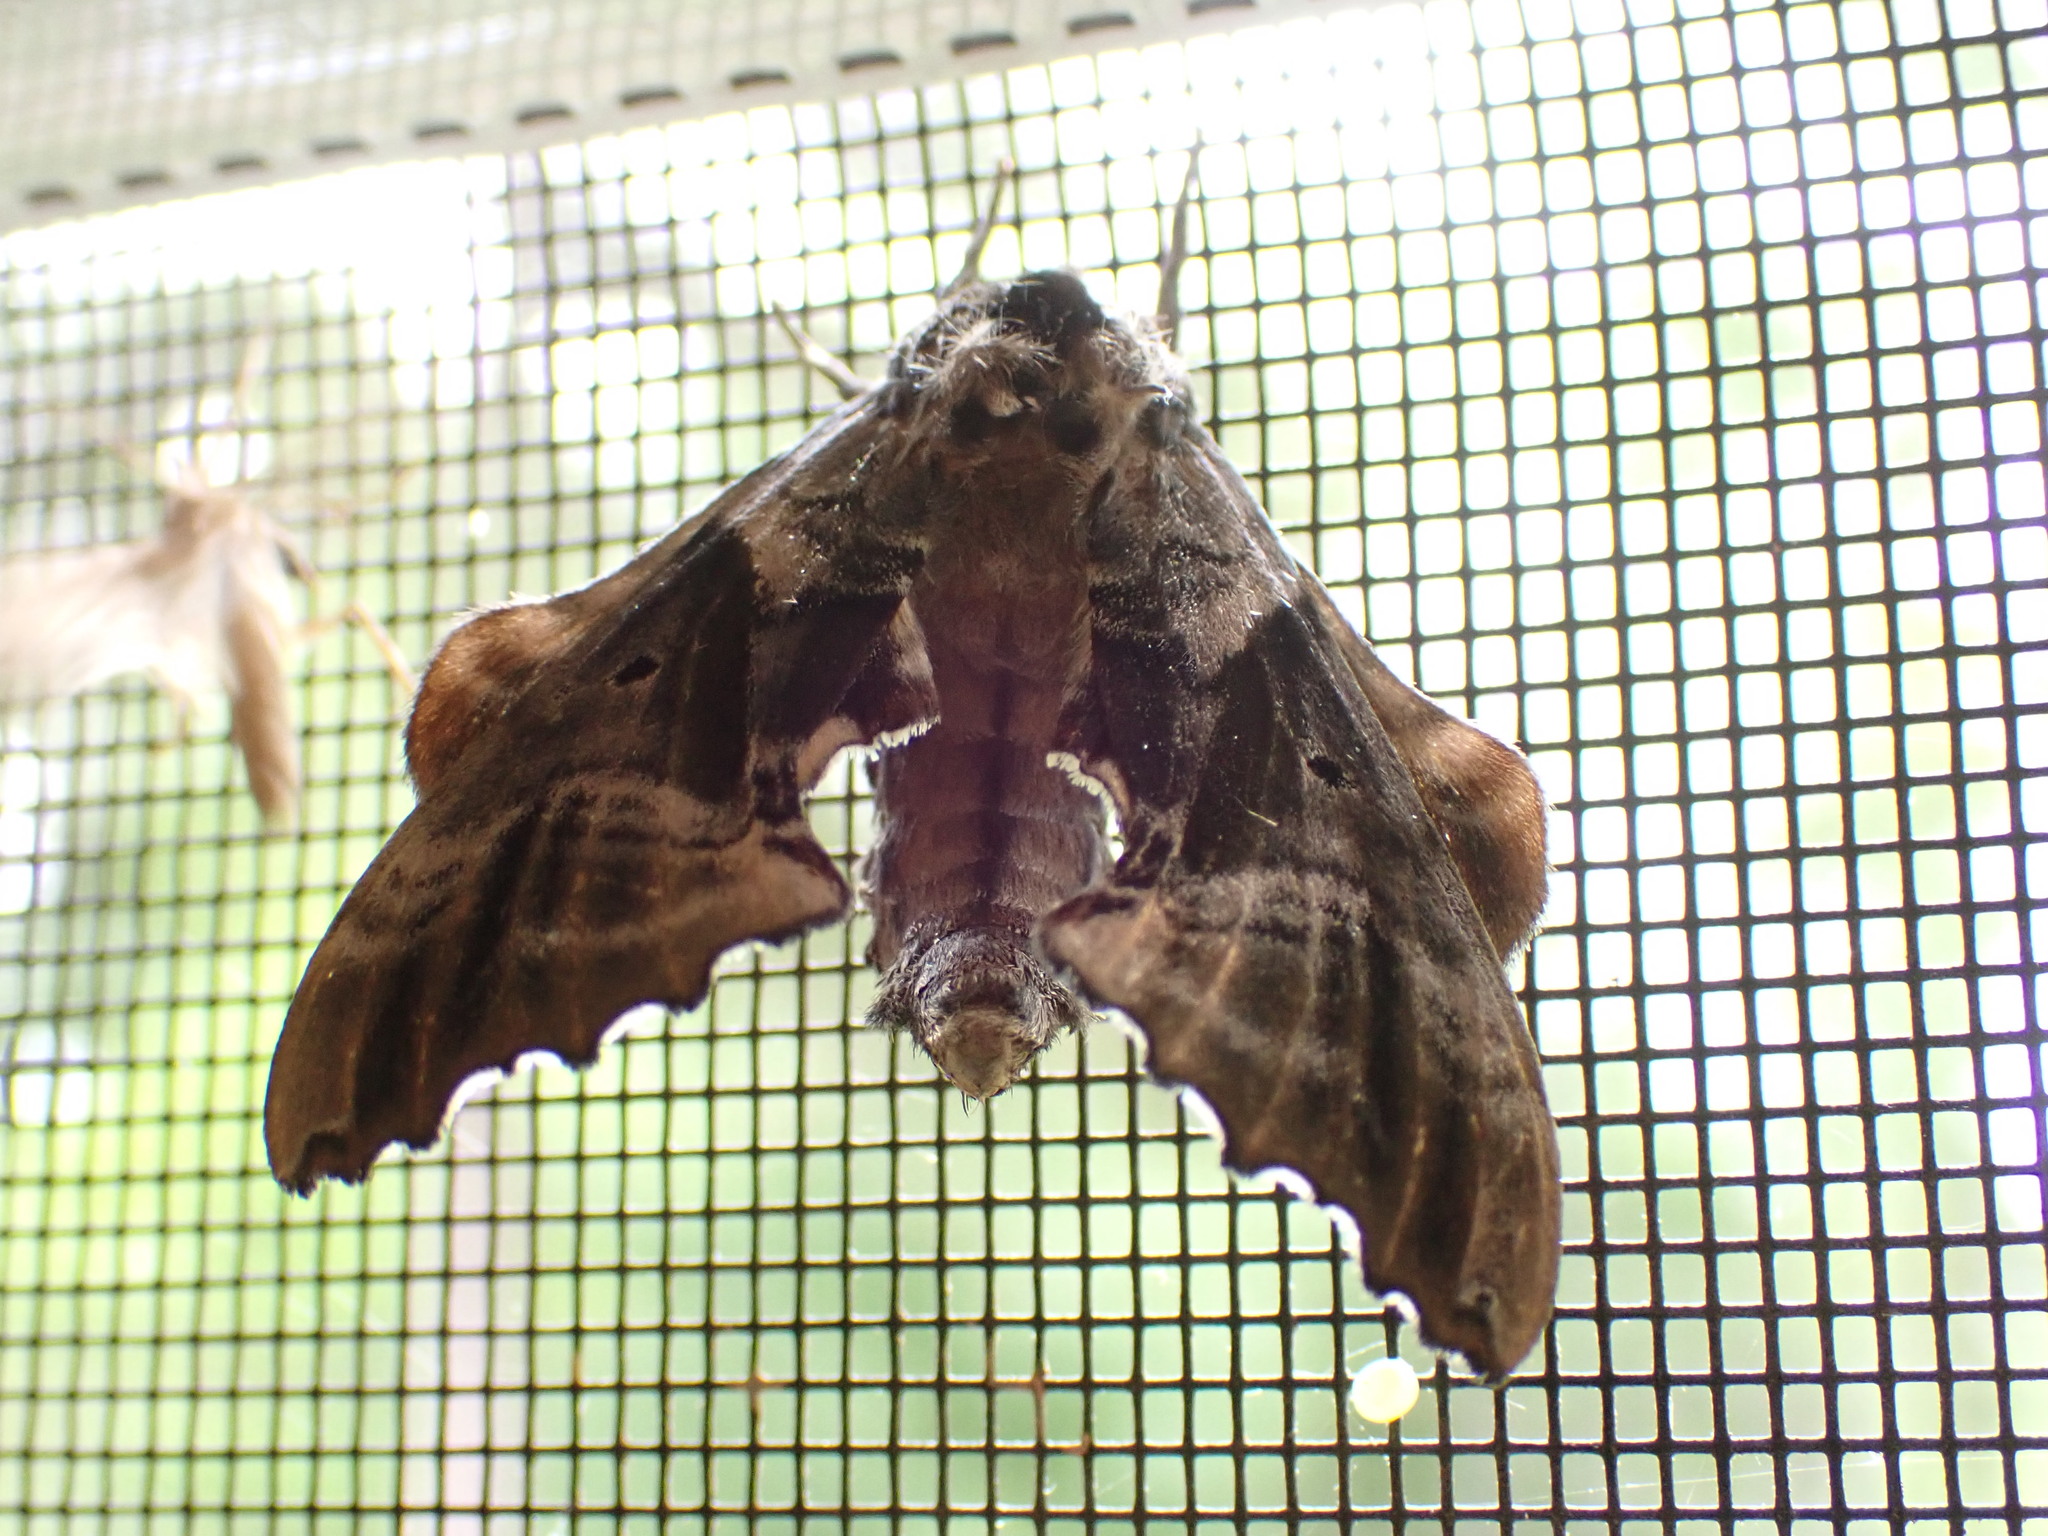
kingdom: Animalia
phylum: Arthropoda
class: Insecta
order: Lepidoptera
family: Sphingidae
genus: Paonias
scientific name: Paonias excaecata
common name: Blind-eyed sphinx
